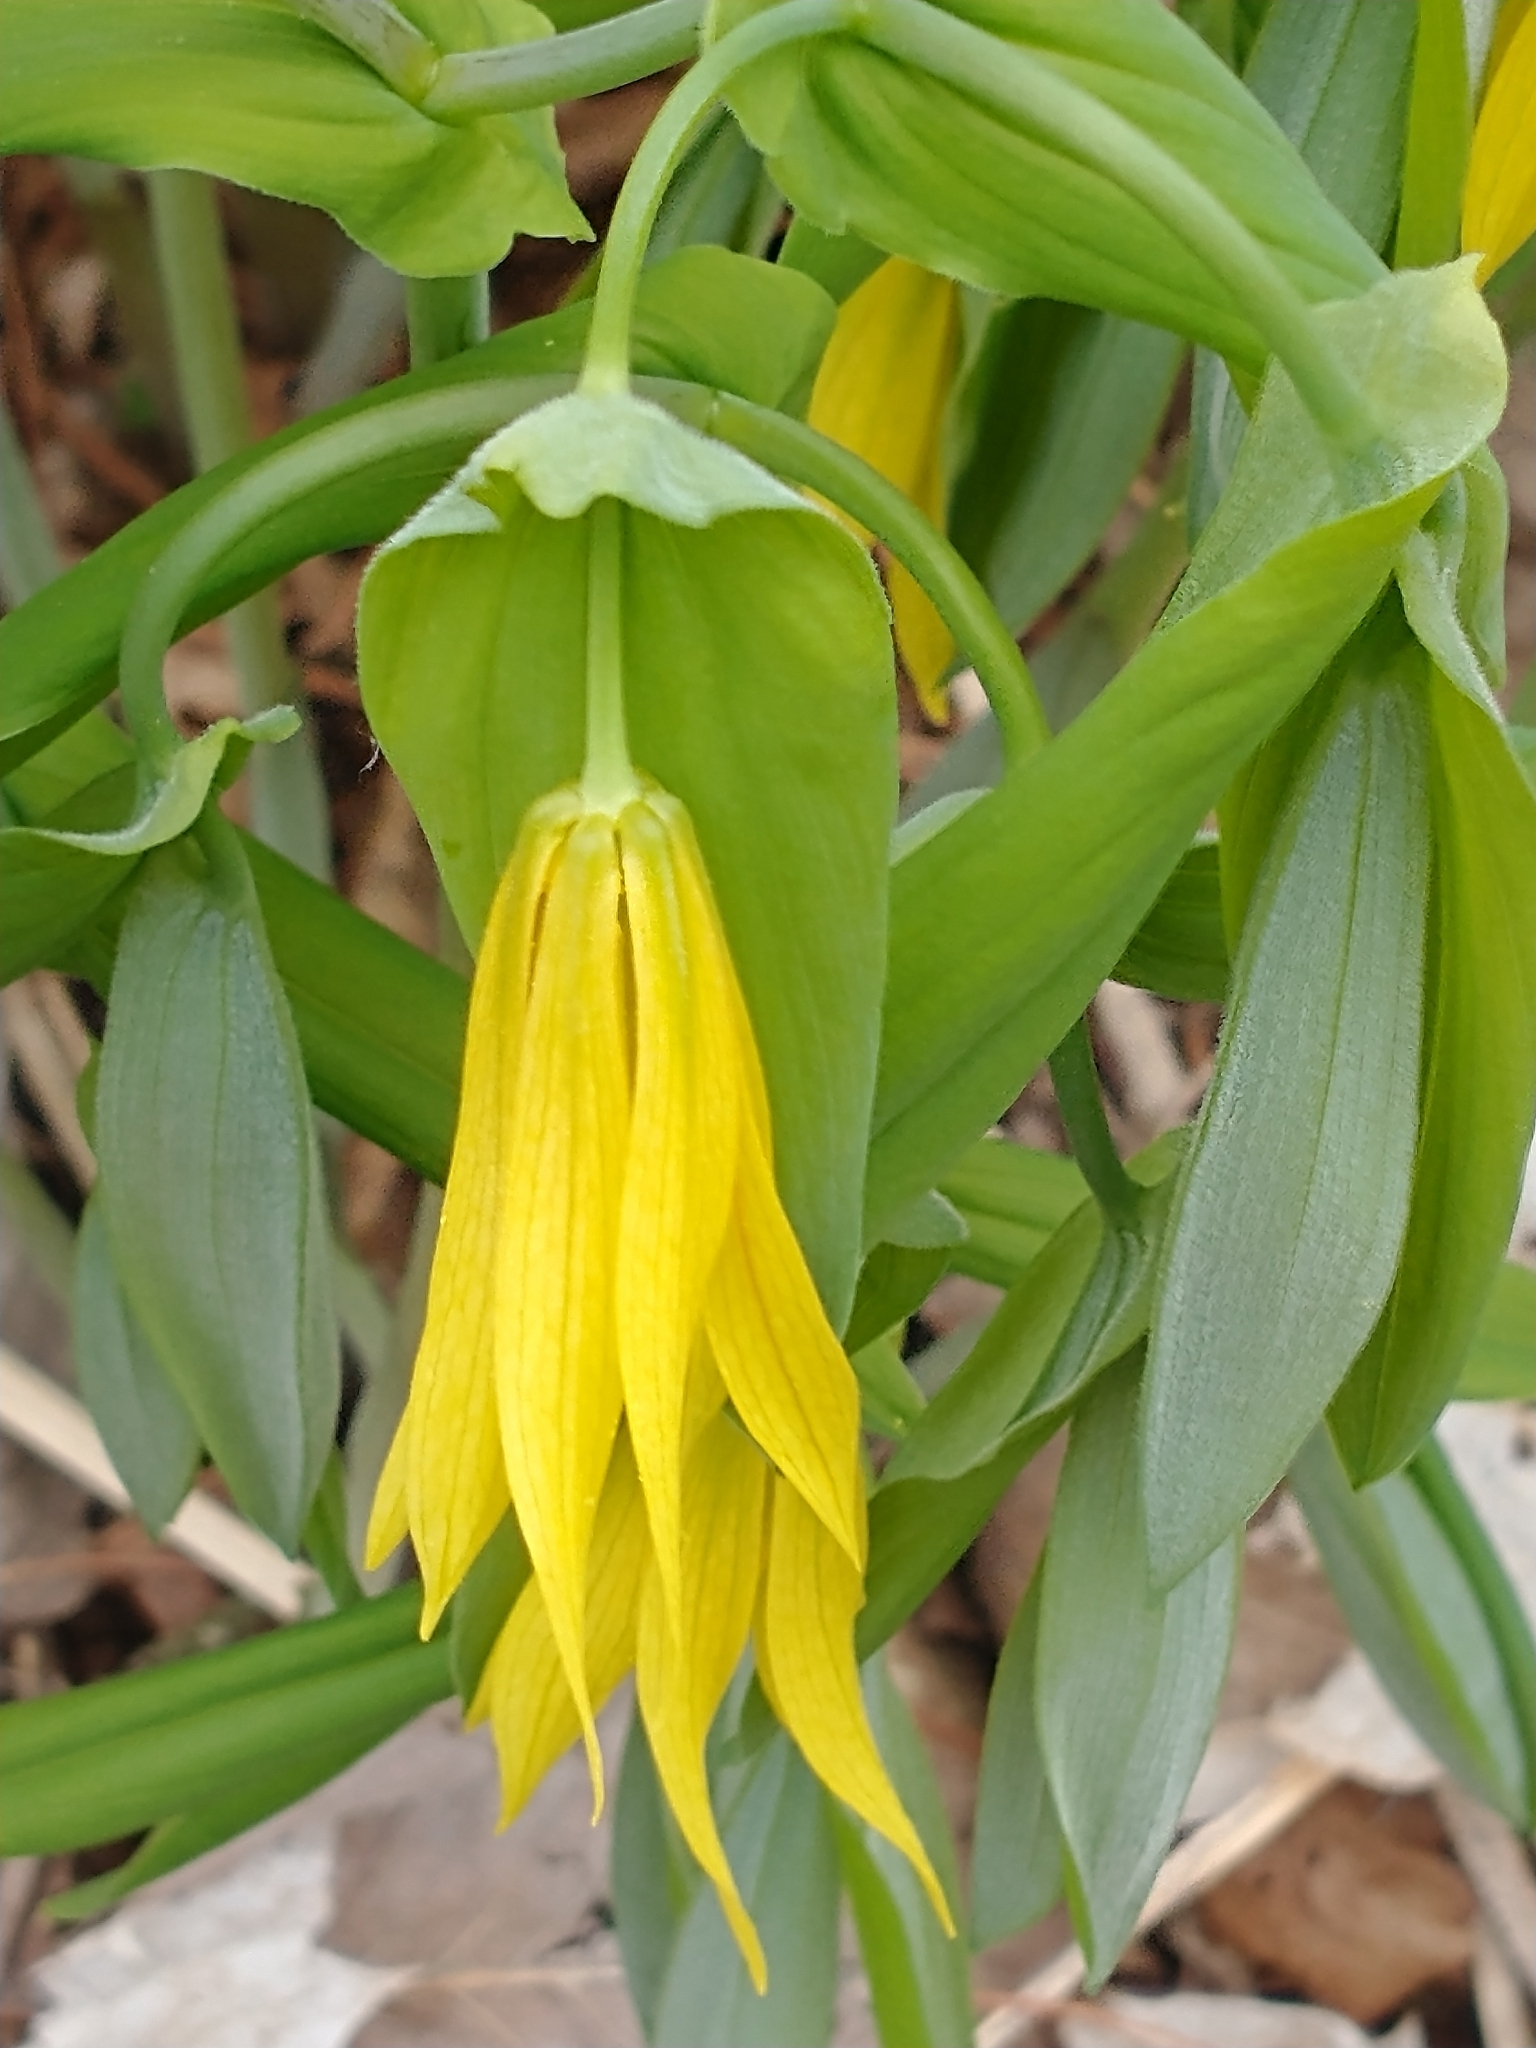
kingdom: Plantae
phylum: Tracheophyta
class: Liliopsida
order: Liliales
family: Colchicaceae
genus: Uvularia
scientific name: Uvularia grandiflora
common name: Bellwort
